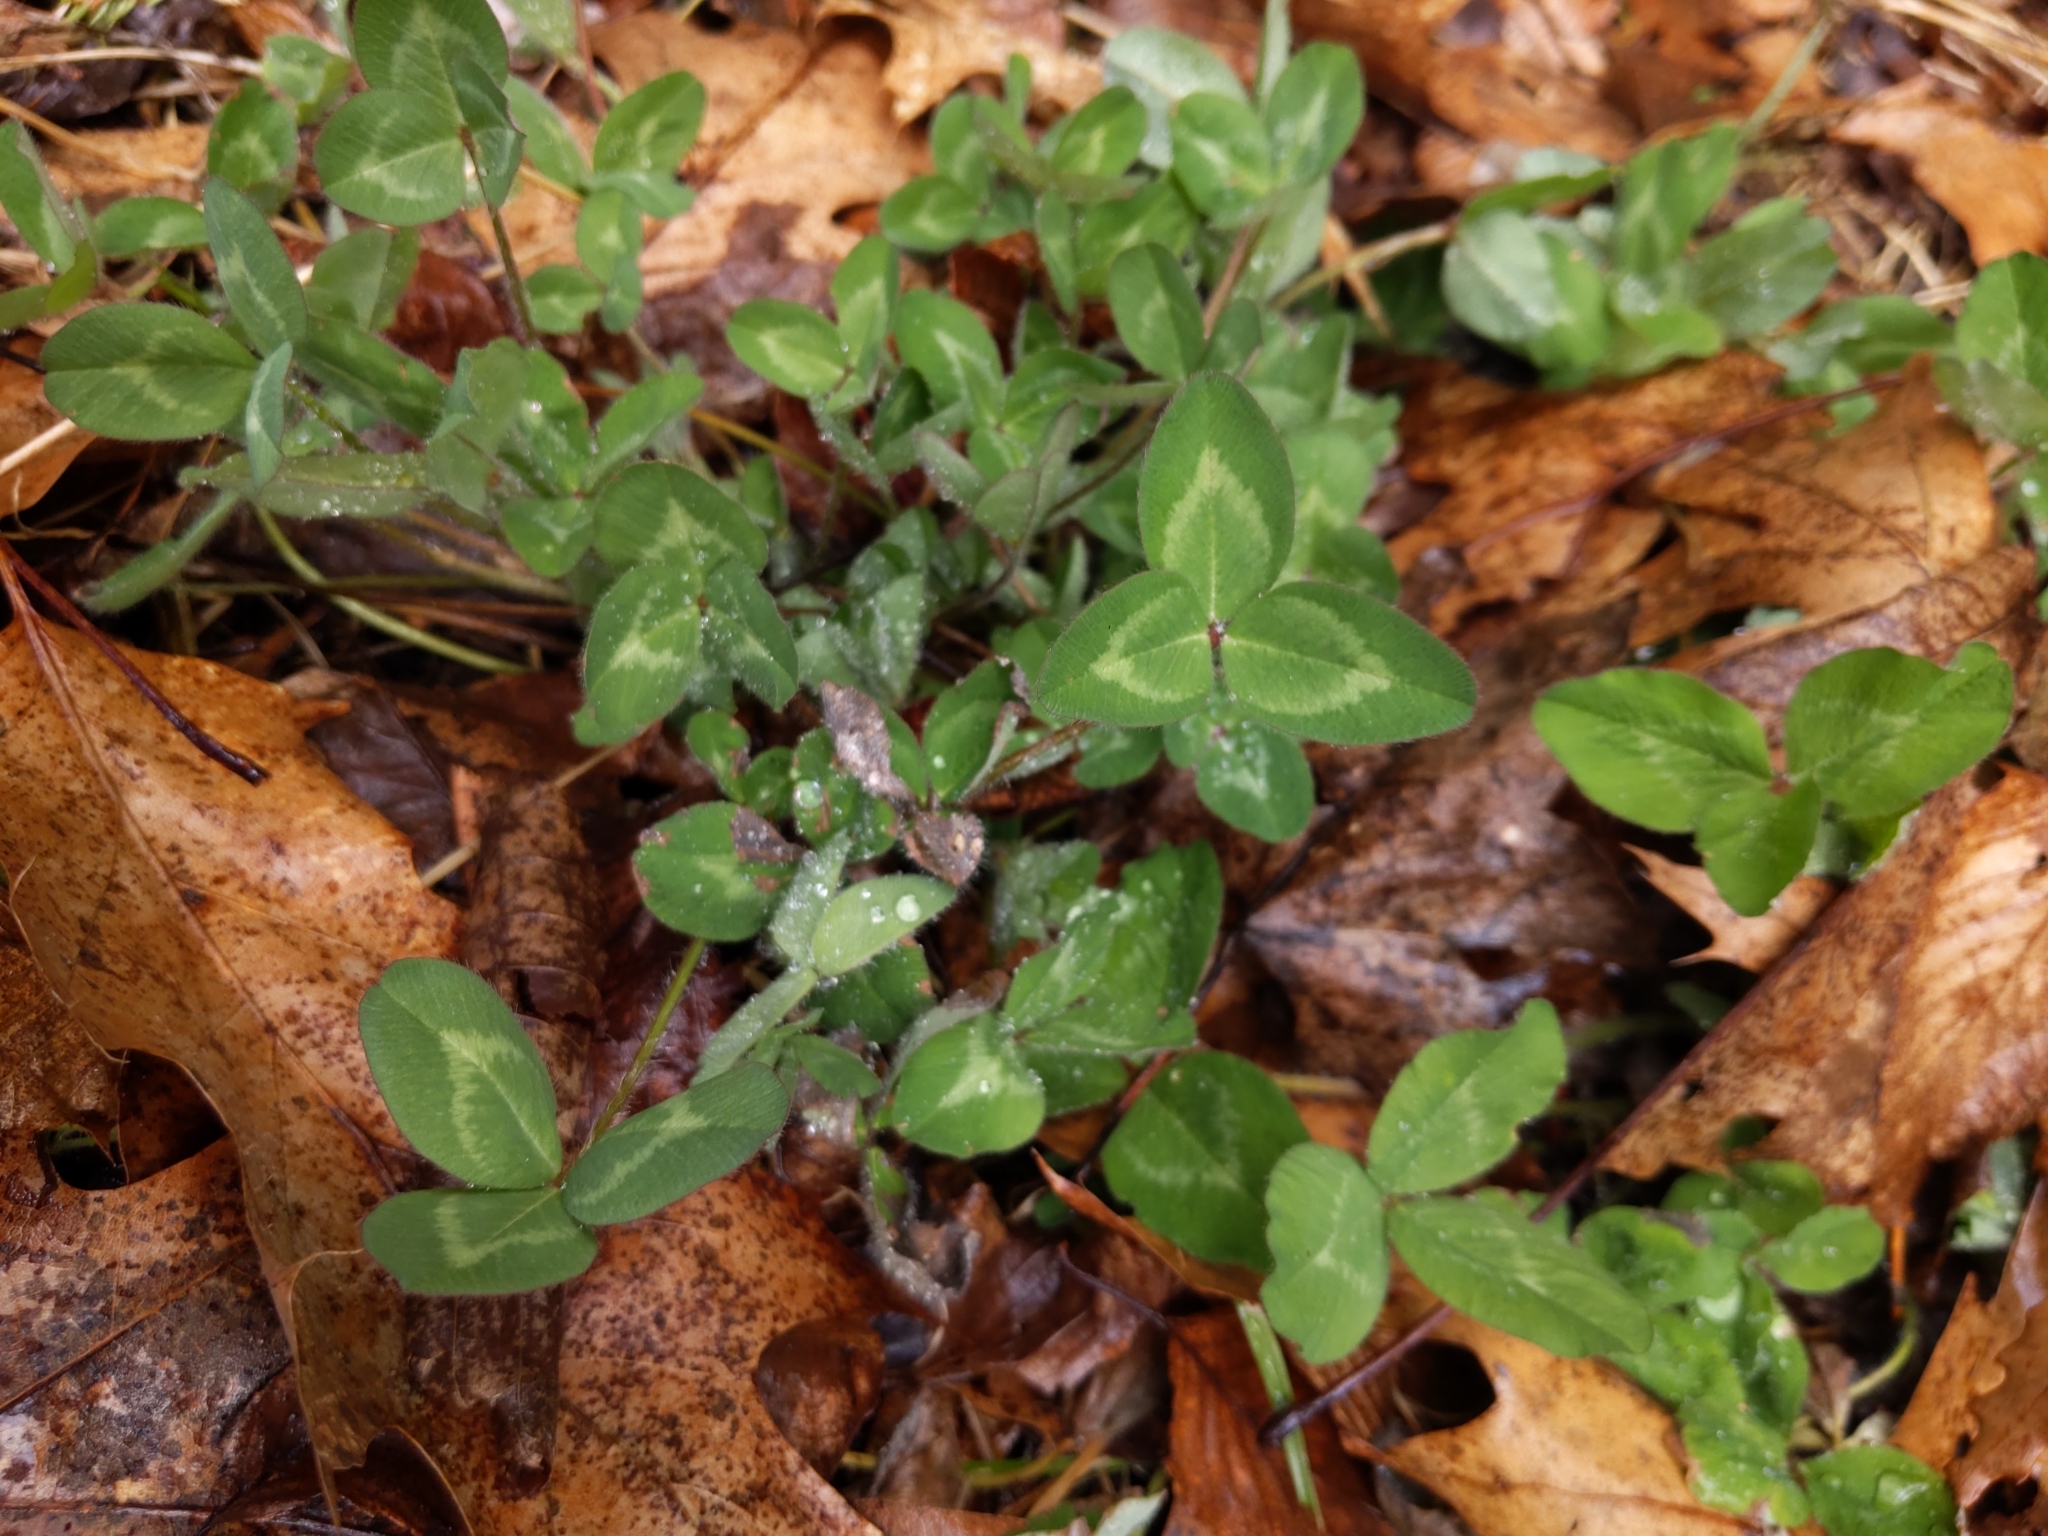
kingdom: Plantae
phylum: Tracheophyta
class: Magnoliopsida
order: Fabales
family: Fabaceae
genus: Trifolium
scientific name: Trifolium pratense
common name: Red clover
